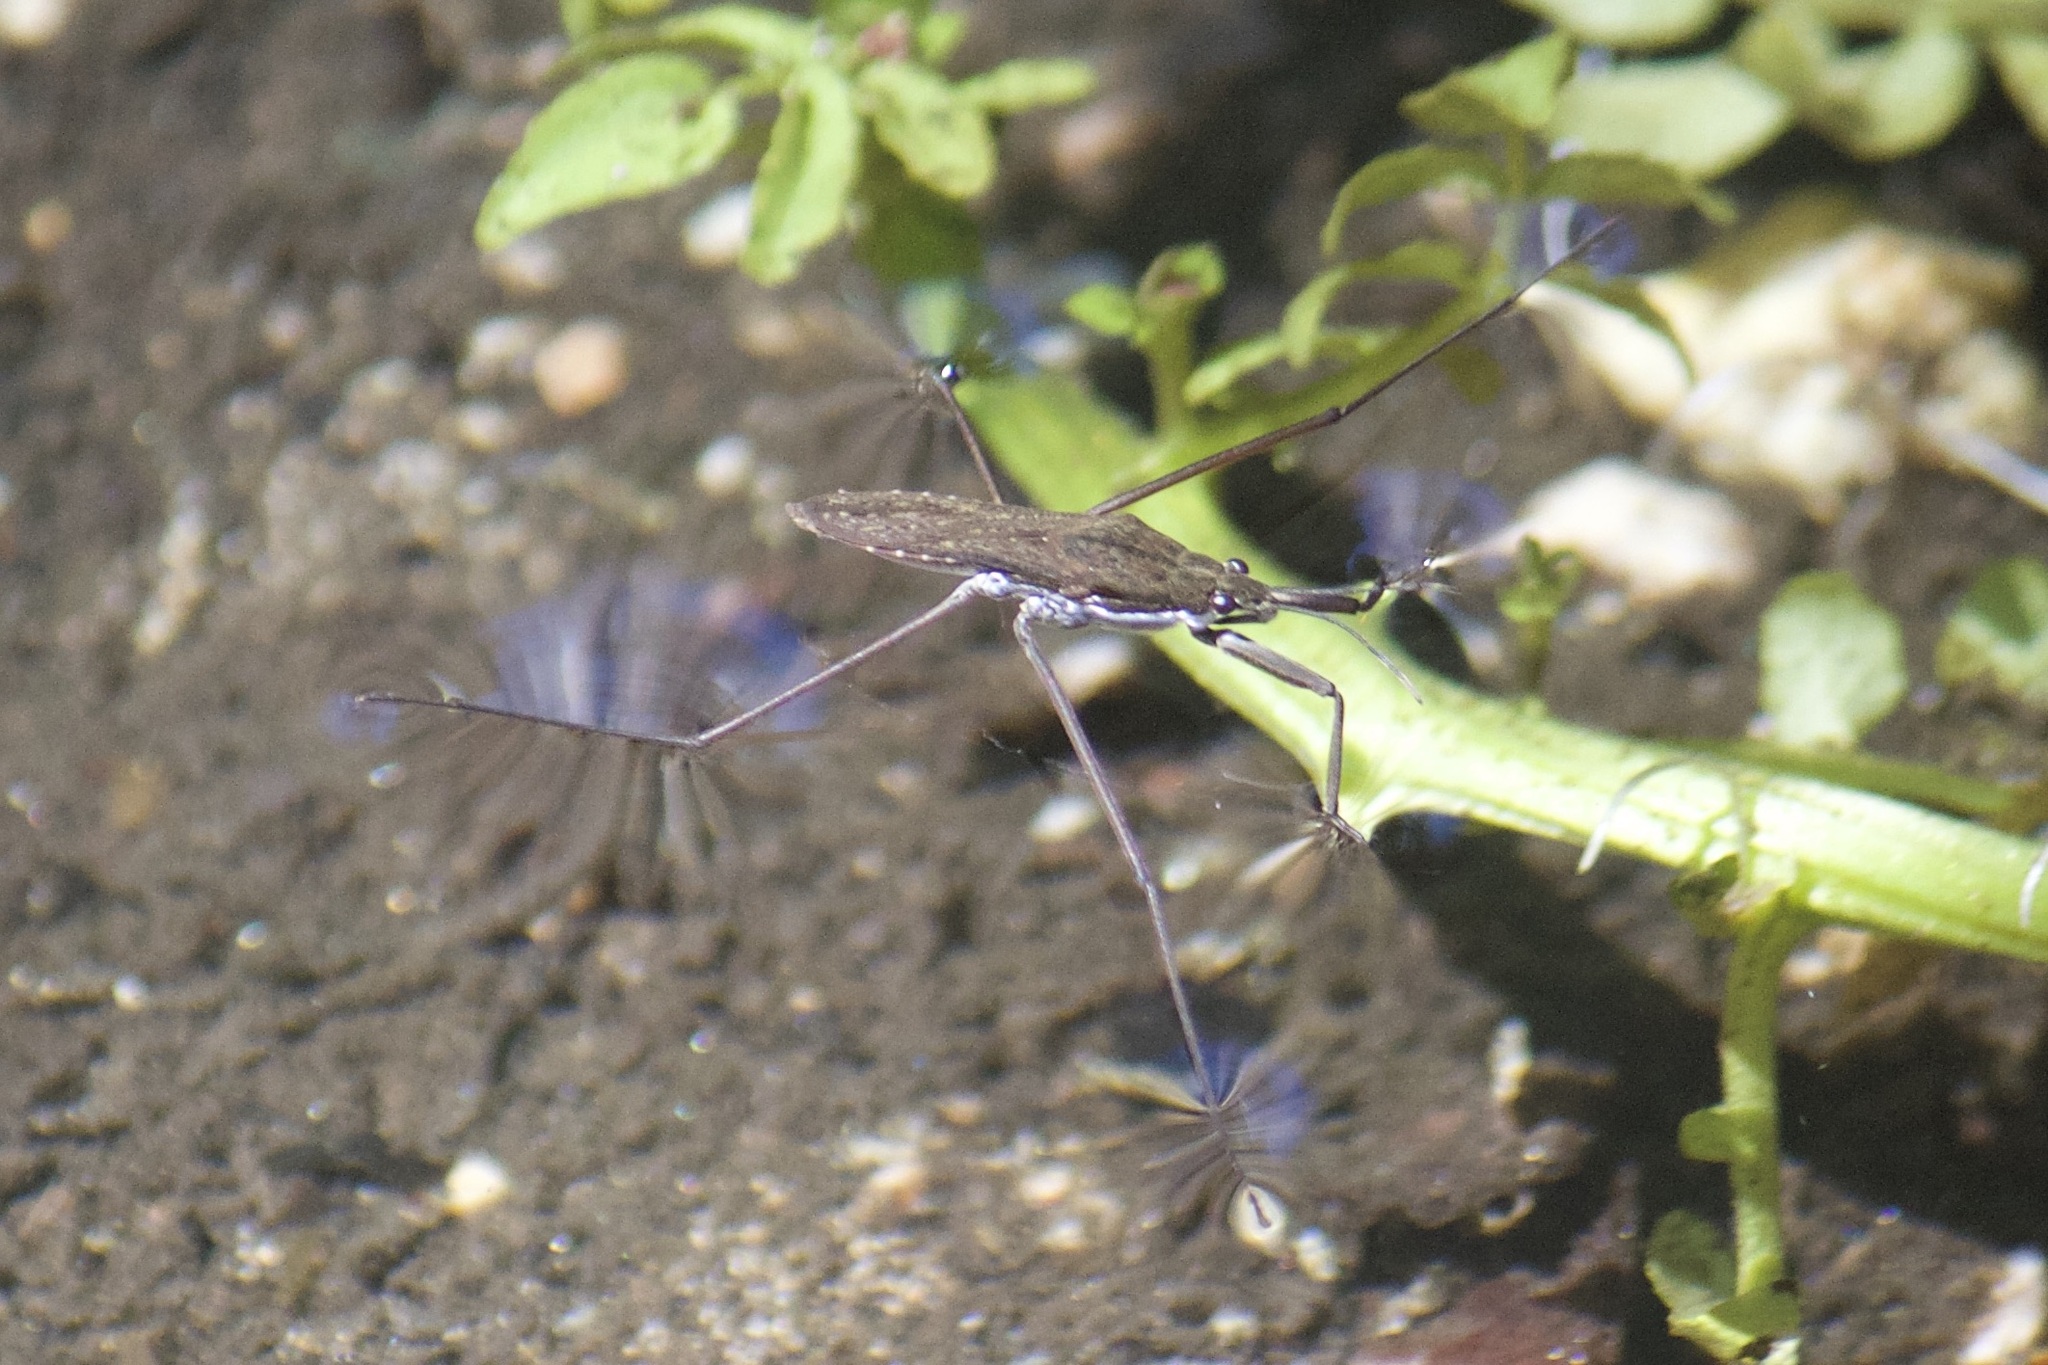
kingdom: Animalia
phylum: Arthropoda
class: Insecta
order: Hemiptera
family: Gerridae
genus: Aquarius
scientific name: Aquarius remigis
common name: Common water strider
